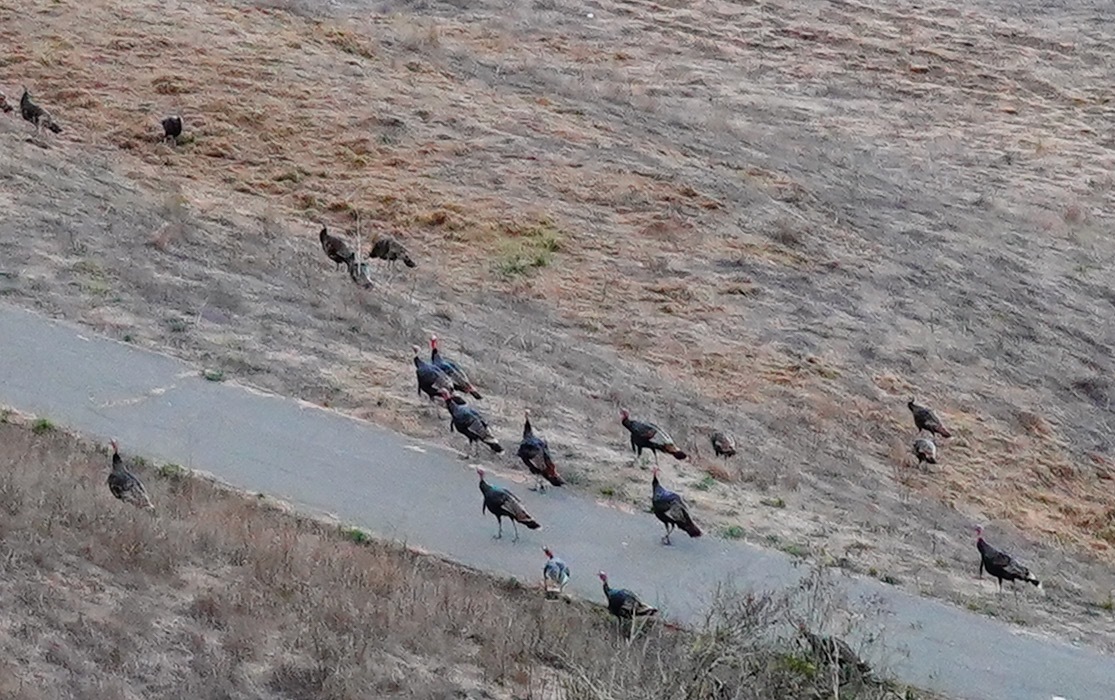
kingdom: Animalia
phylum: Chordata
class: Aves
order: Galliformes
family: Phasianidae
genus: Meleagris
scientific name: Meleagris gallopavo
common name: Wild turkey
